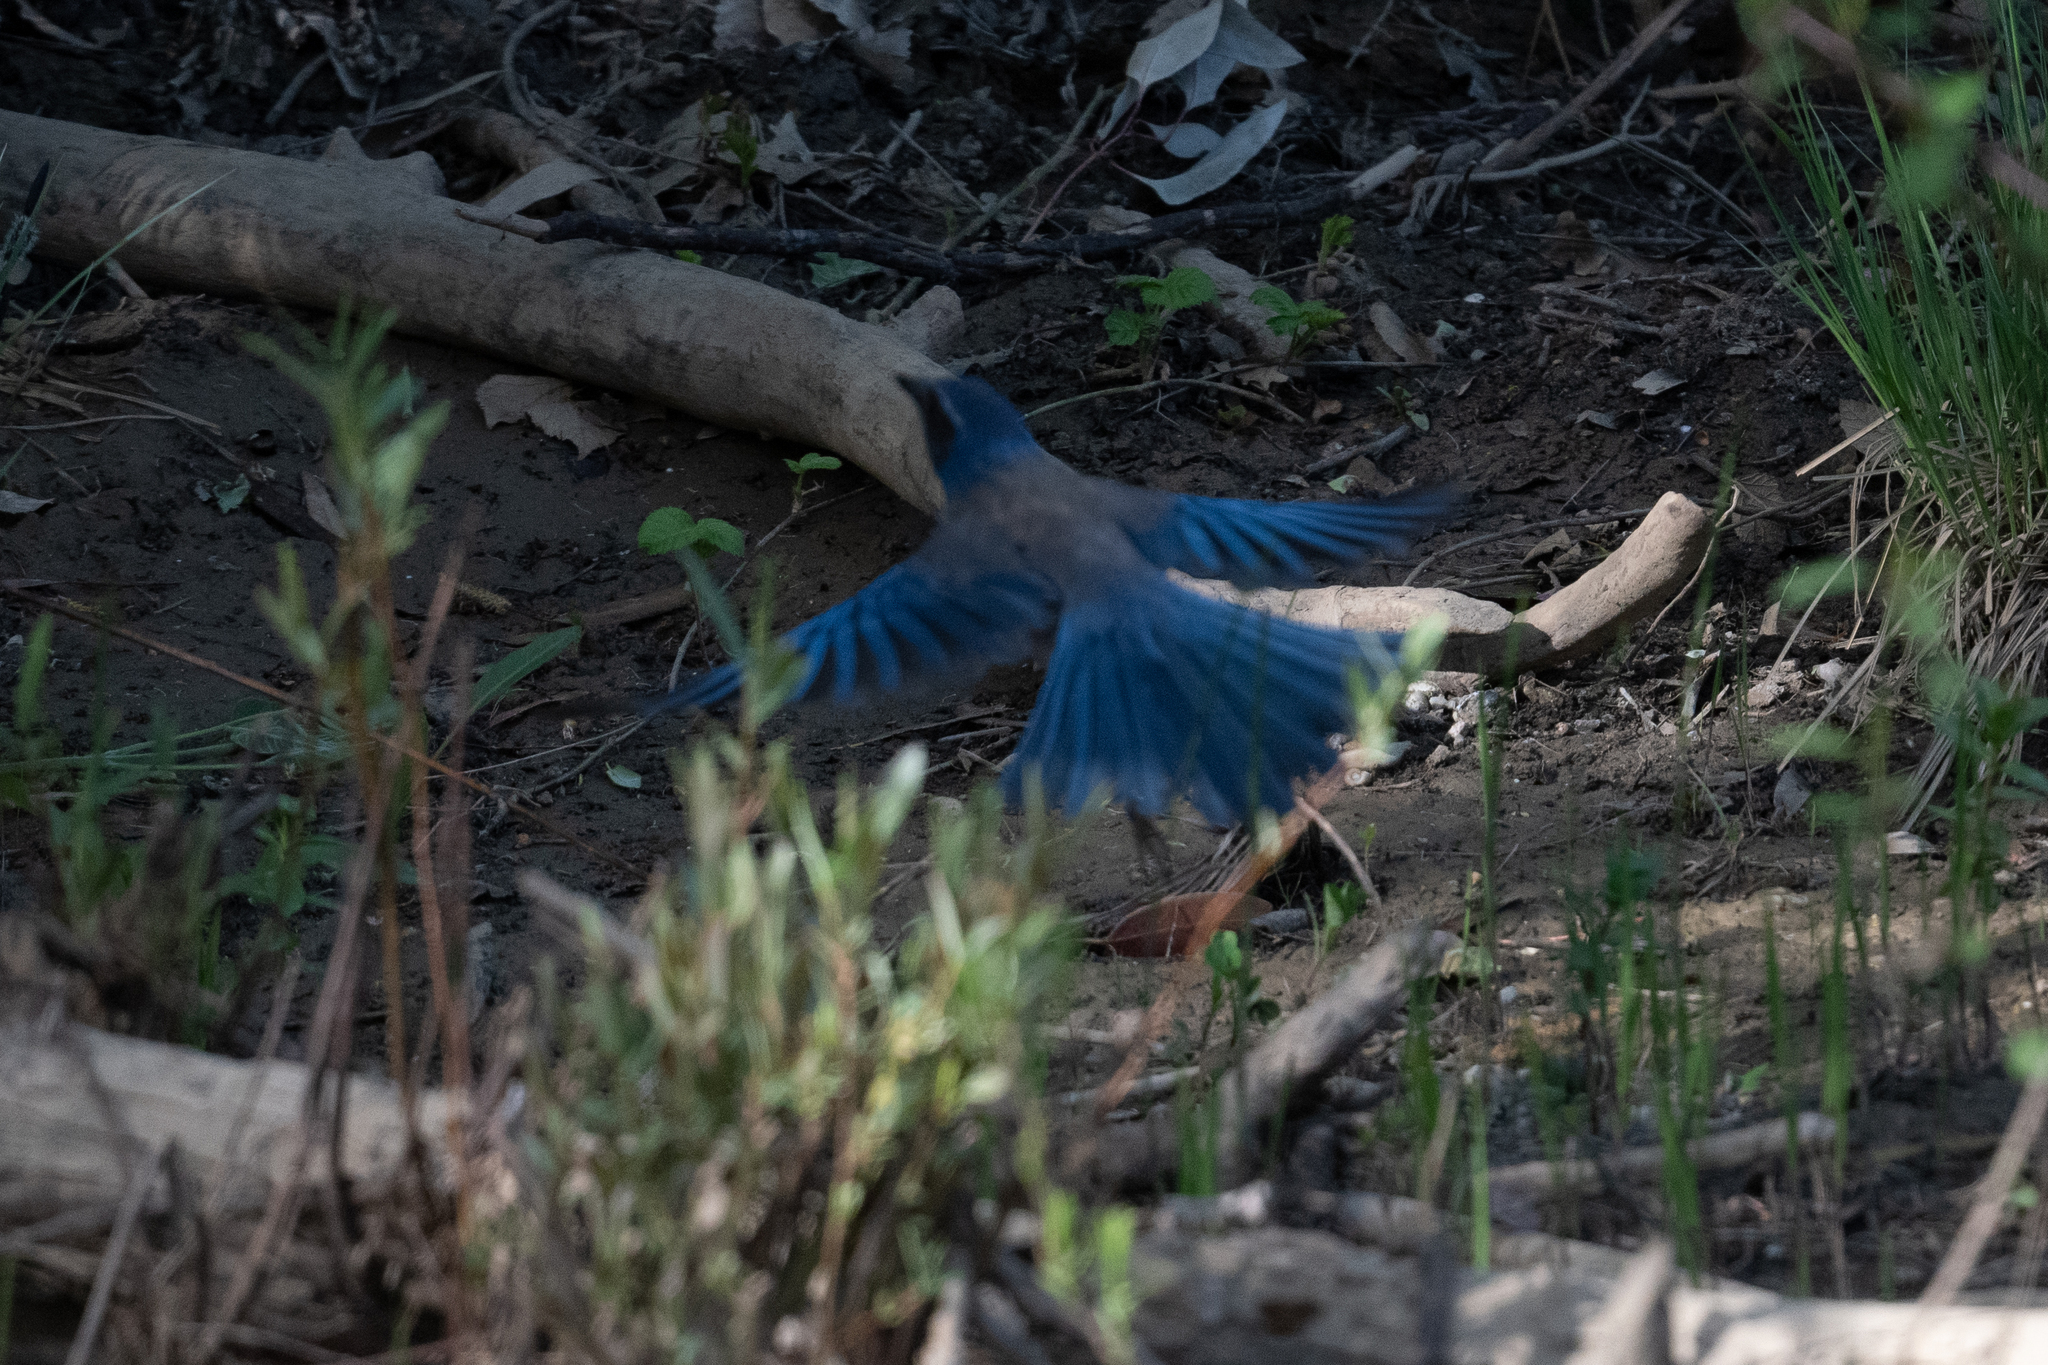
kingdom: Animalia
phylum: Chordata
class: Aves
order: Passeriformes
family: Corvidae
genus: Aphelocoma
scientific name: Aphelocoma californica
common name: California scrub-jay
